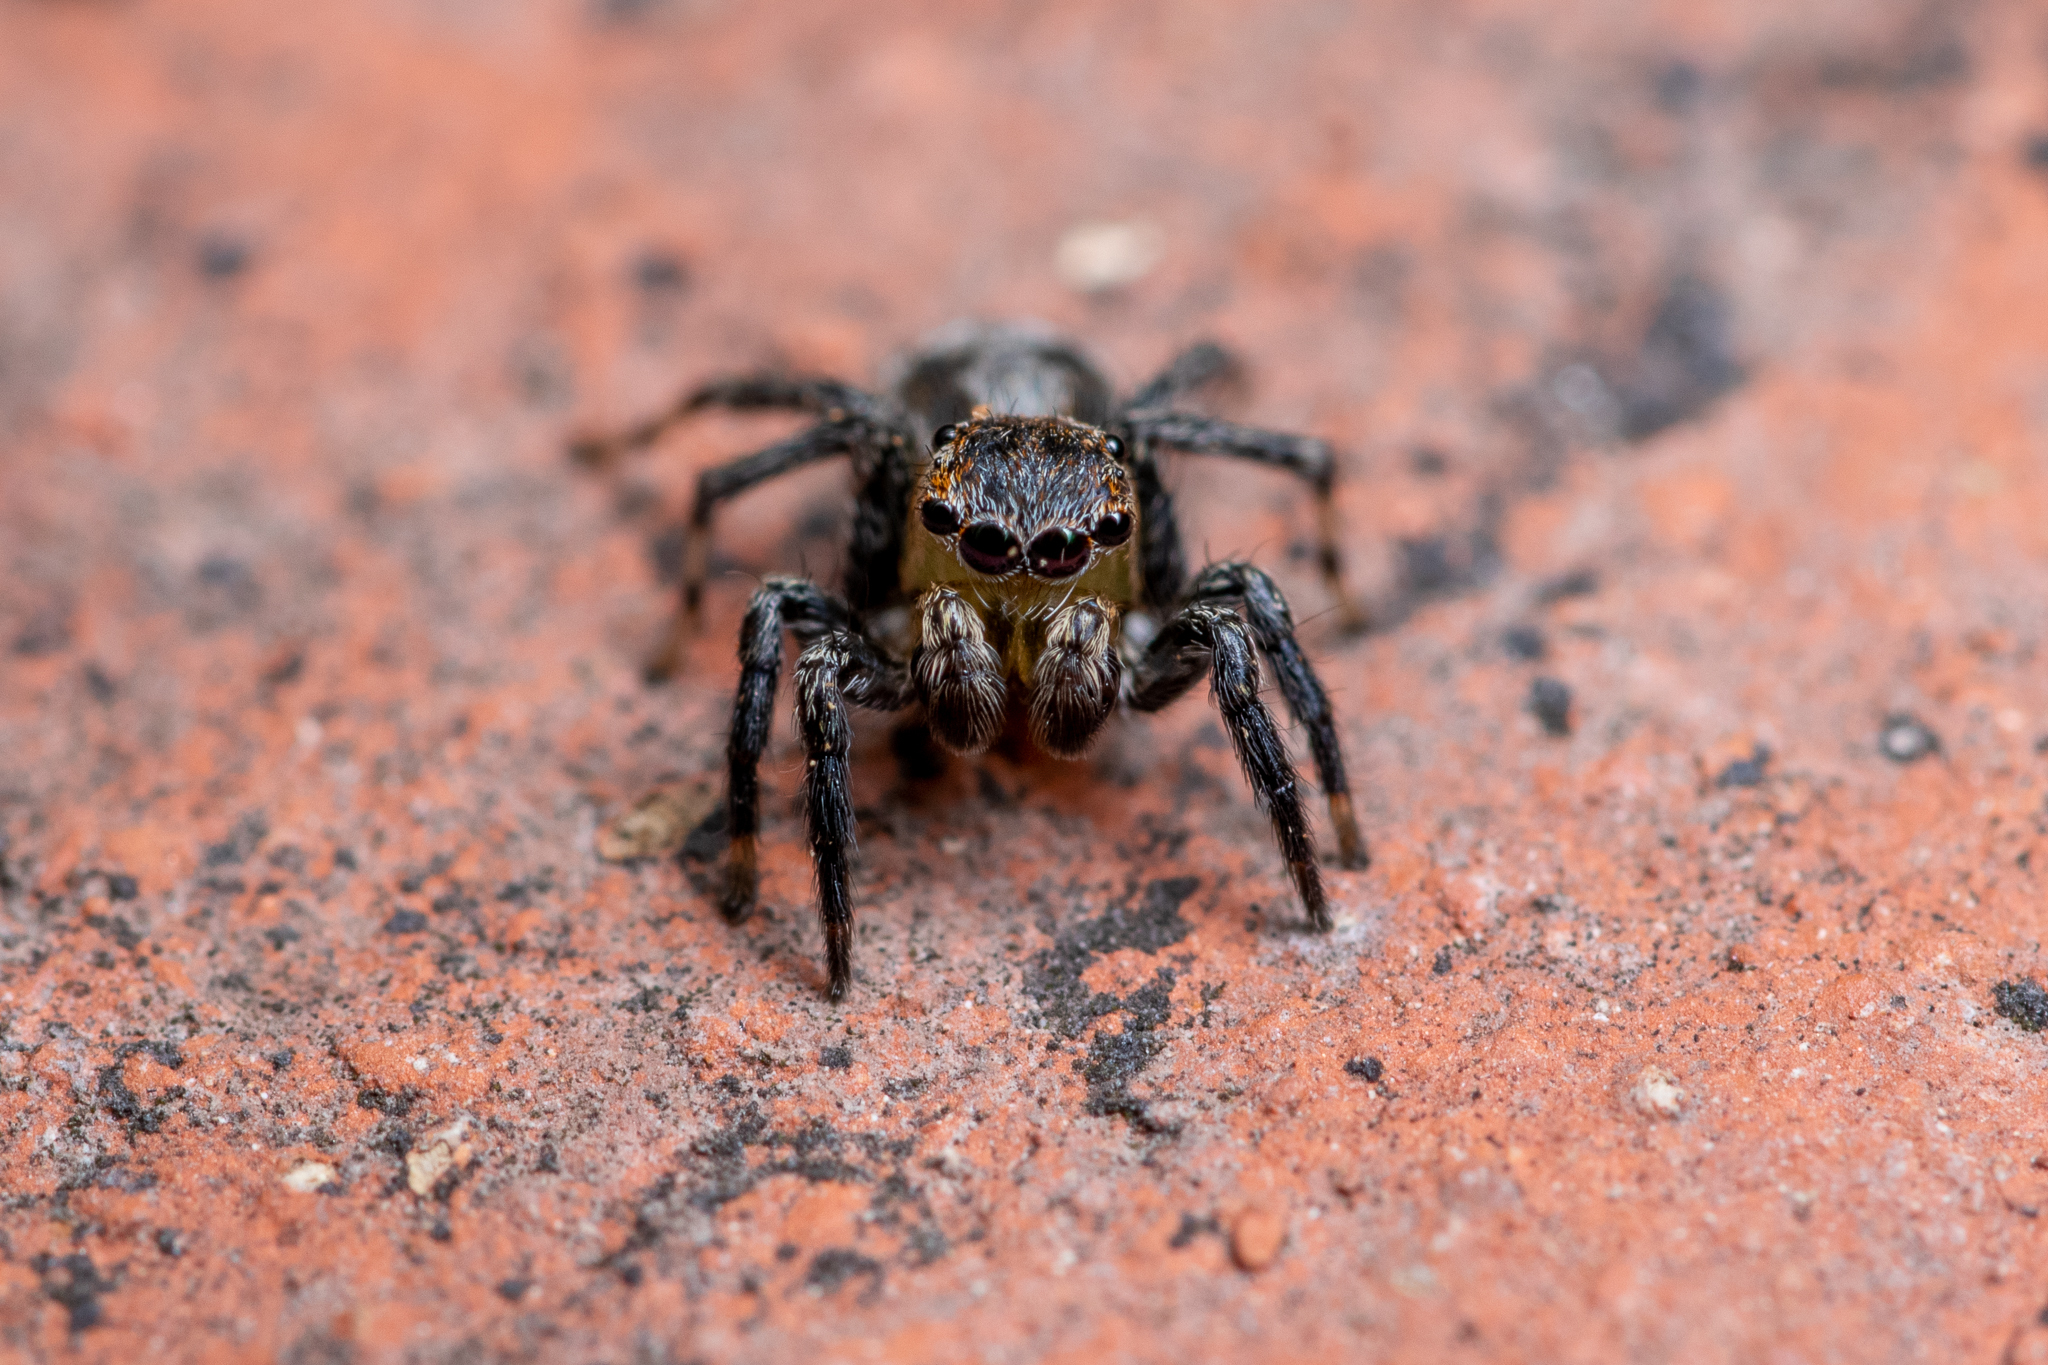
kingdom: Animalia
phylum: Arthropoda
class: Arachnida
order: Araneae
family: Salticidae
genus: Naphrys
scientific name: Naphrys pulex
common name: Flea jumping spider
